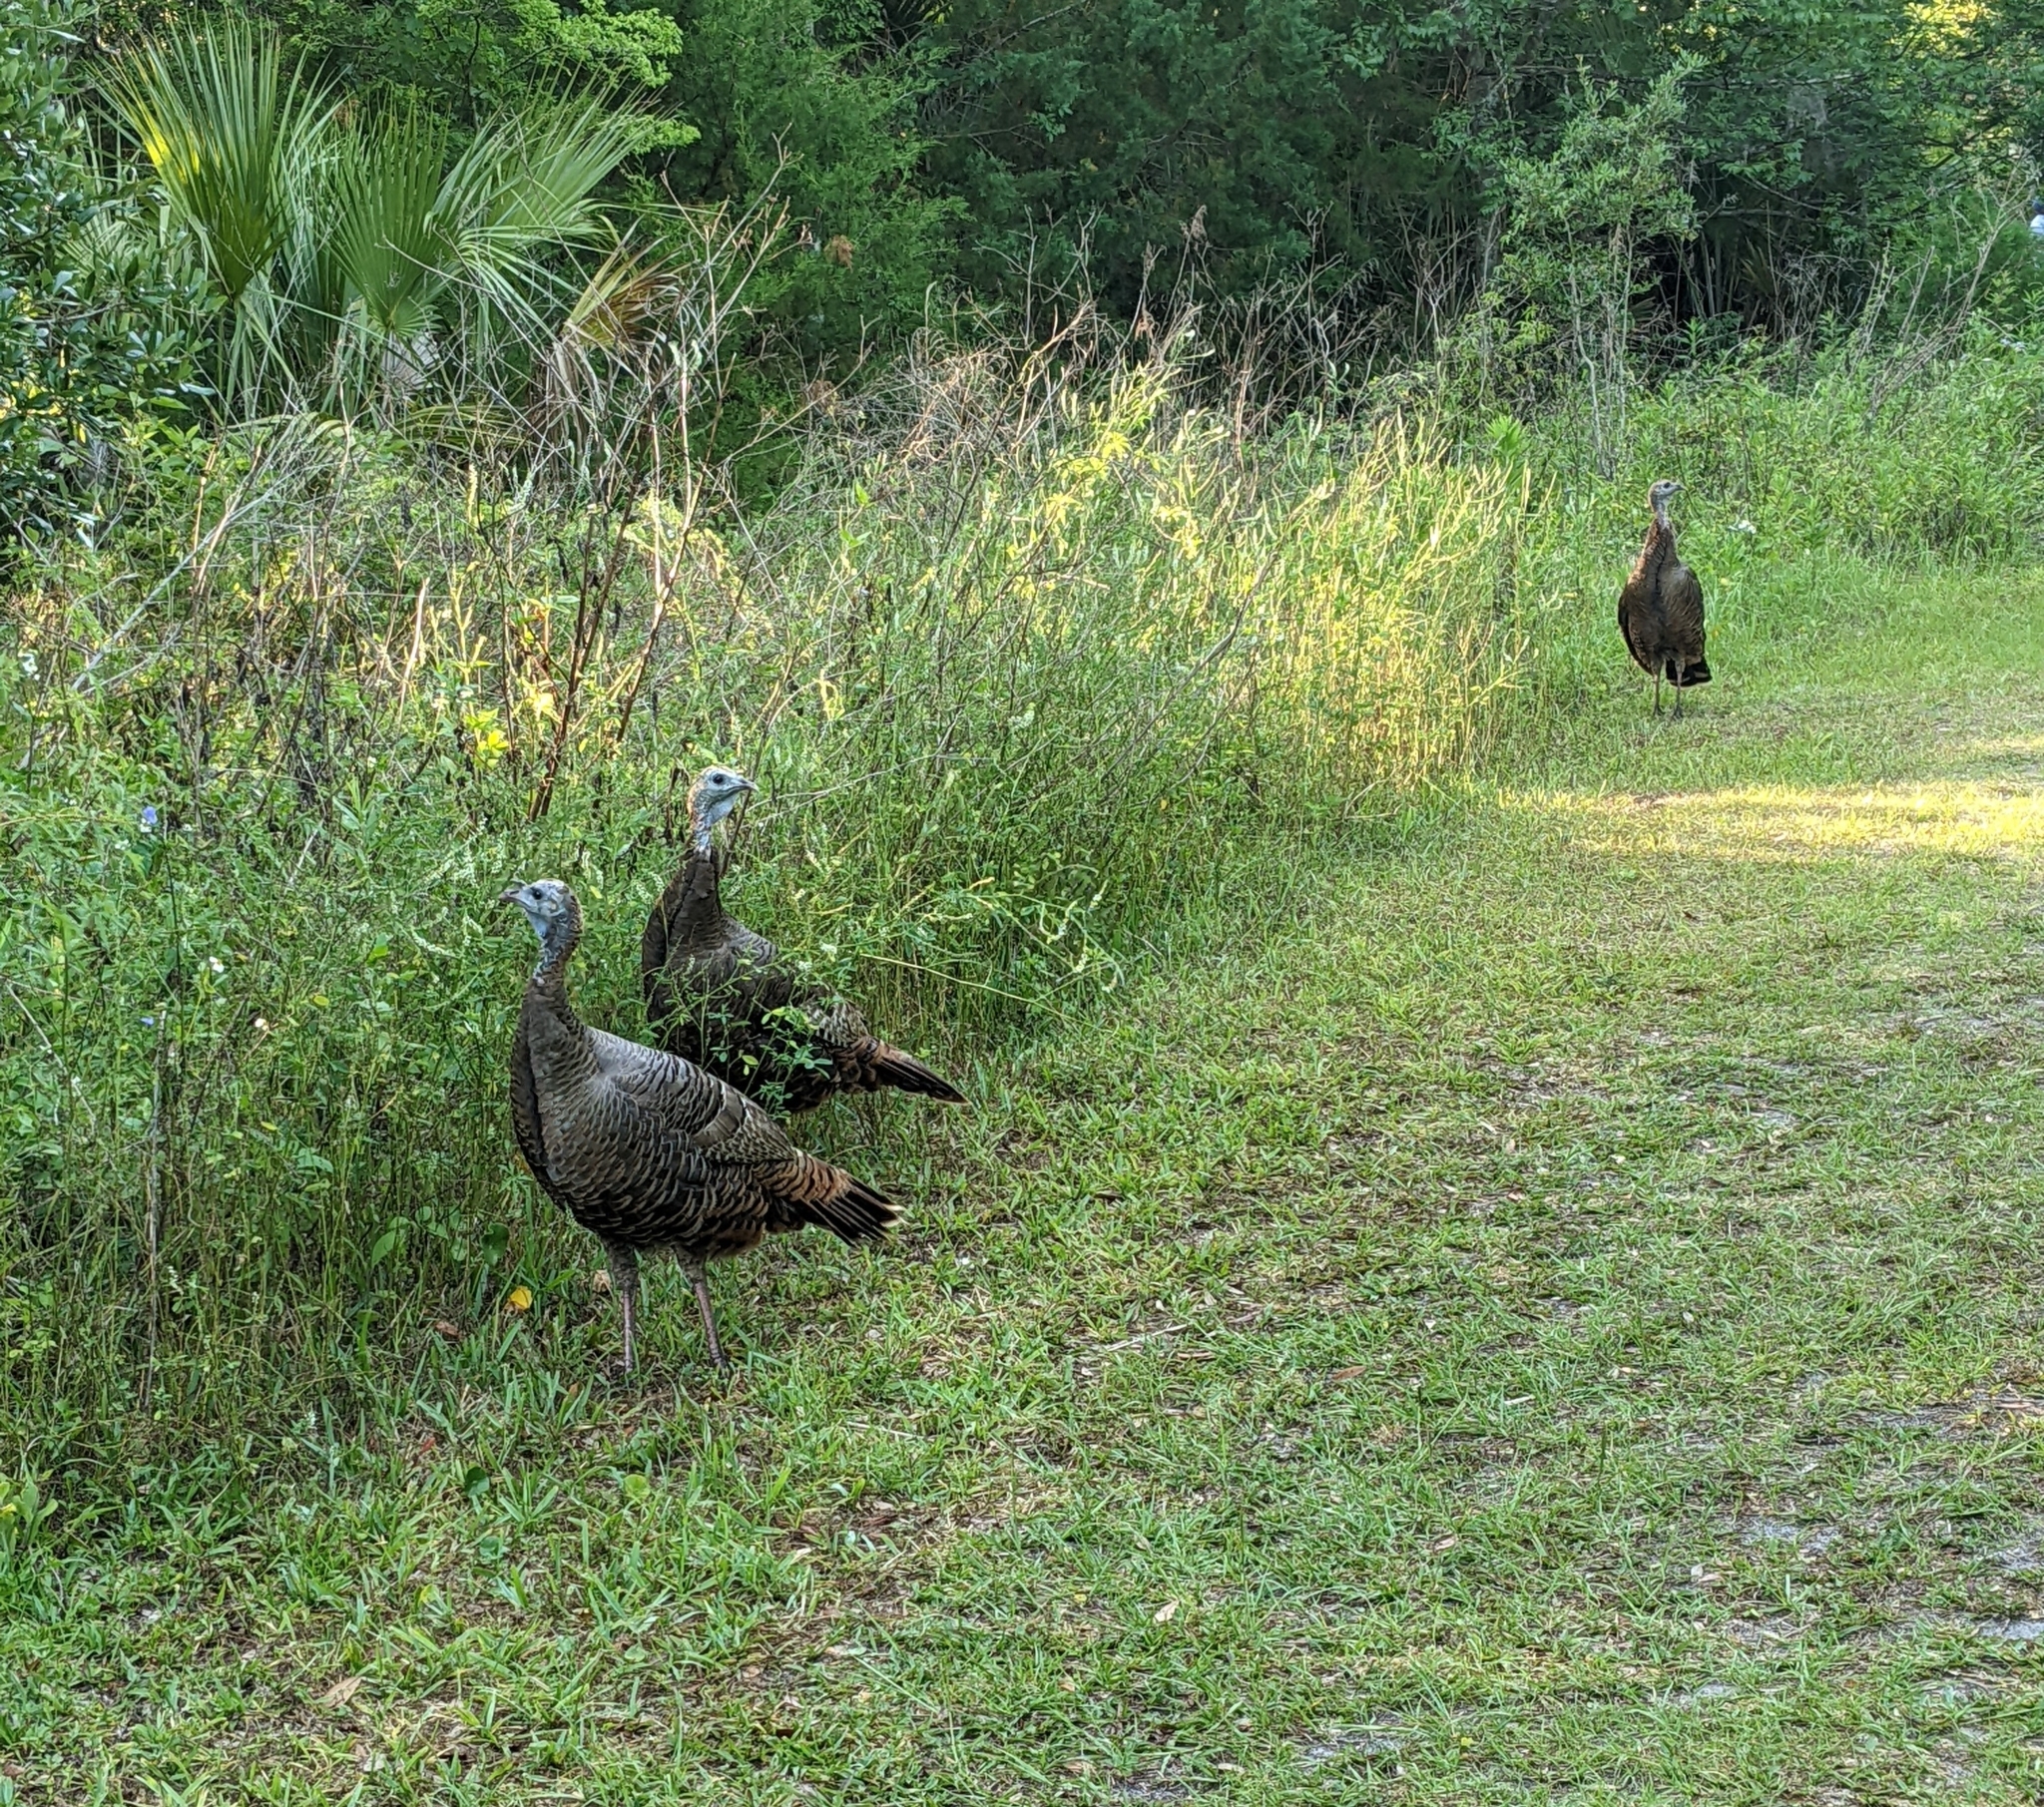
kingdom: Animalia
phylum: Chordata
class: Aves
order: Galliformes
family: Phasianidae
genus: Meleagris
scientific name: Meleagris gallopavo
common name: Wild turkey
